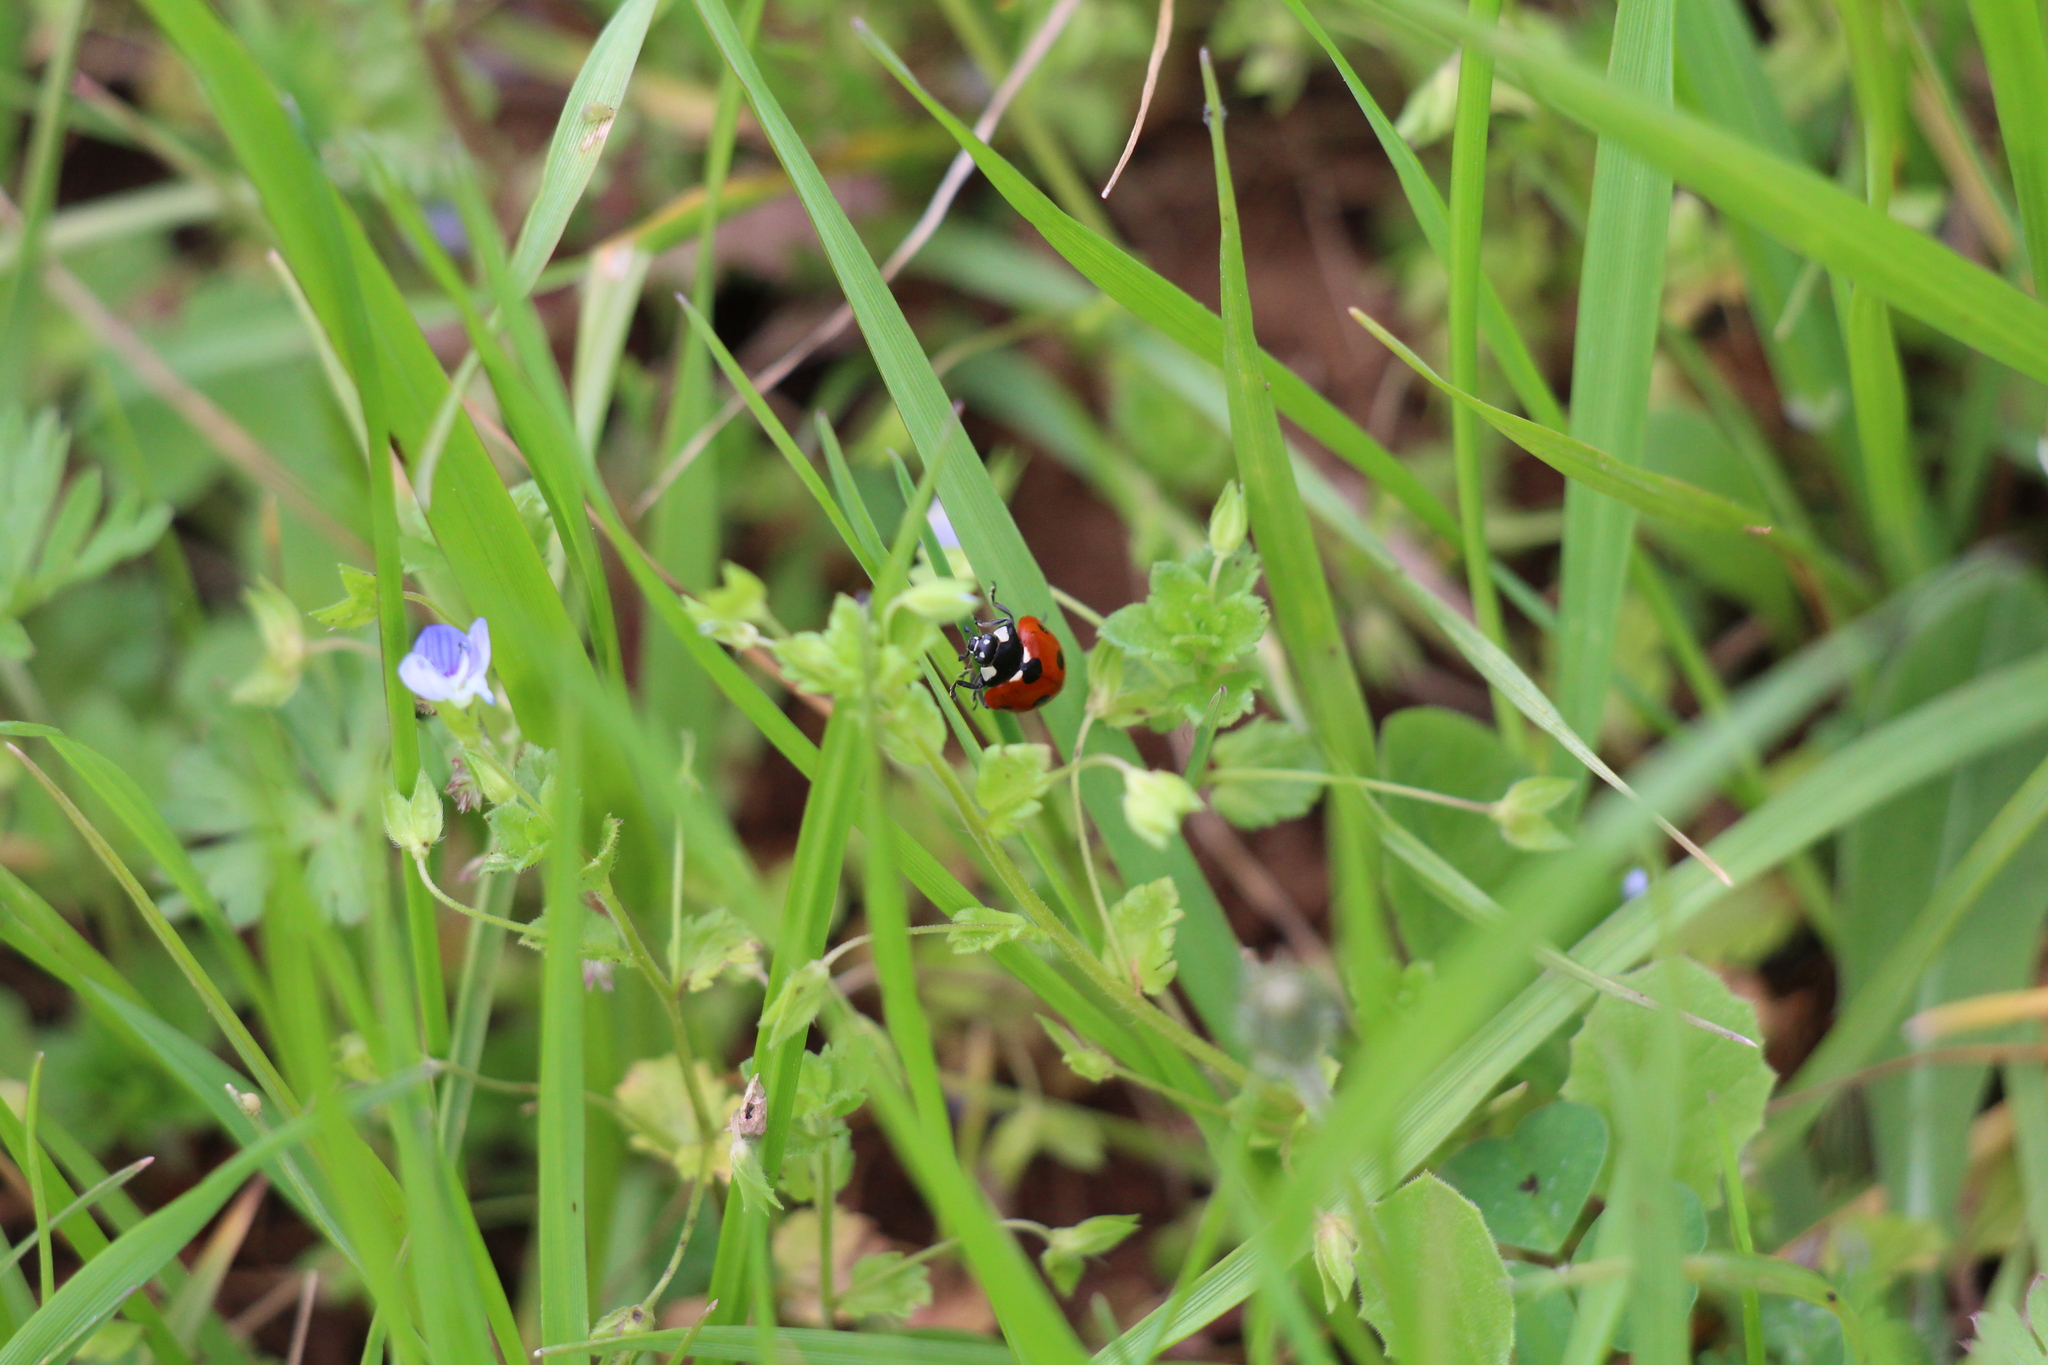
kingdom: Animalia
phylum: Arthropoda
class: Insecta
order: Coleoptera
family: Coccinellidae
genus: Coccinella
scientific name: Coccinella septempunctata
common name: Sevenspotted lady beetle
